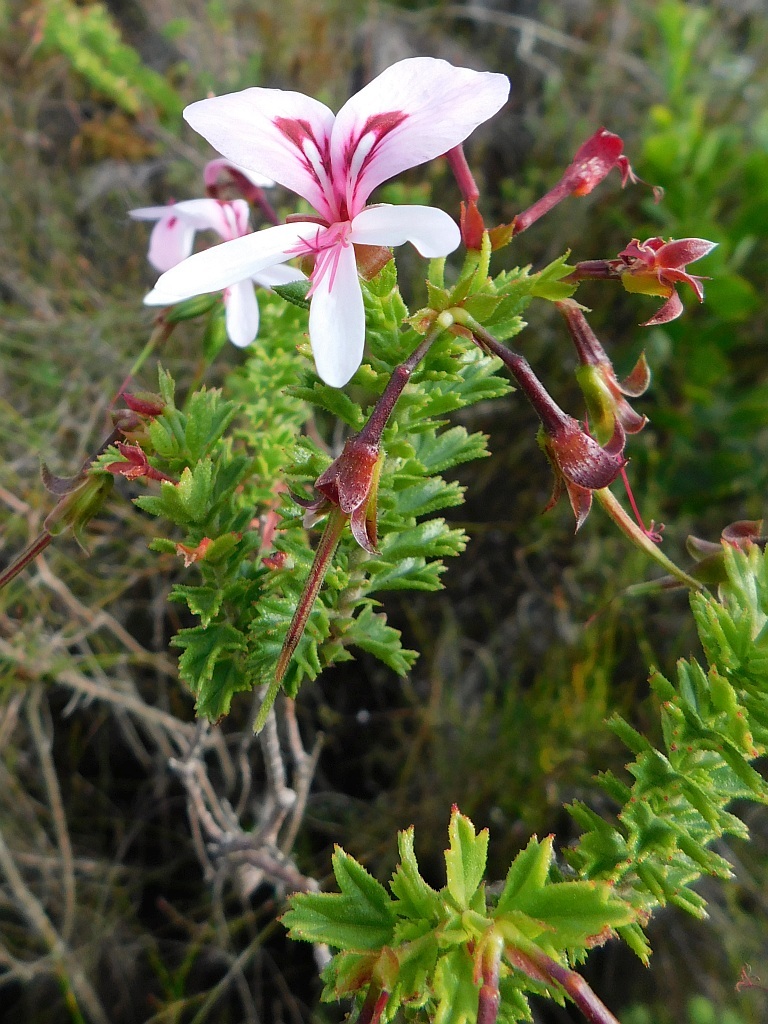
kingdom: Plantae
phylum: Tracheophyta
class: Magnoliopsida
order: Geraniales
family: Geraniaceae
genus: Pelargonium
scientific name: Pelargonium hermaniifolium
